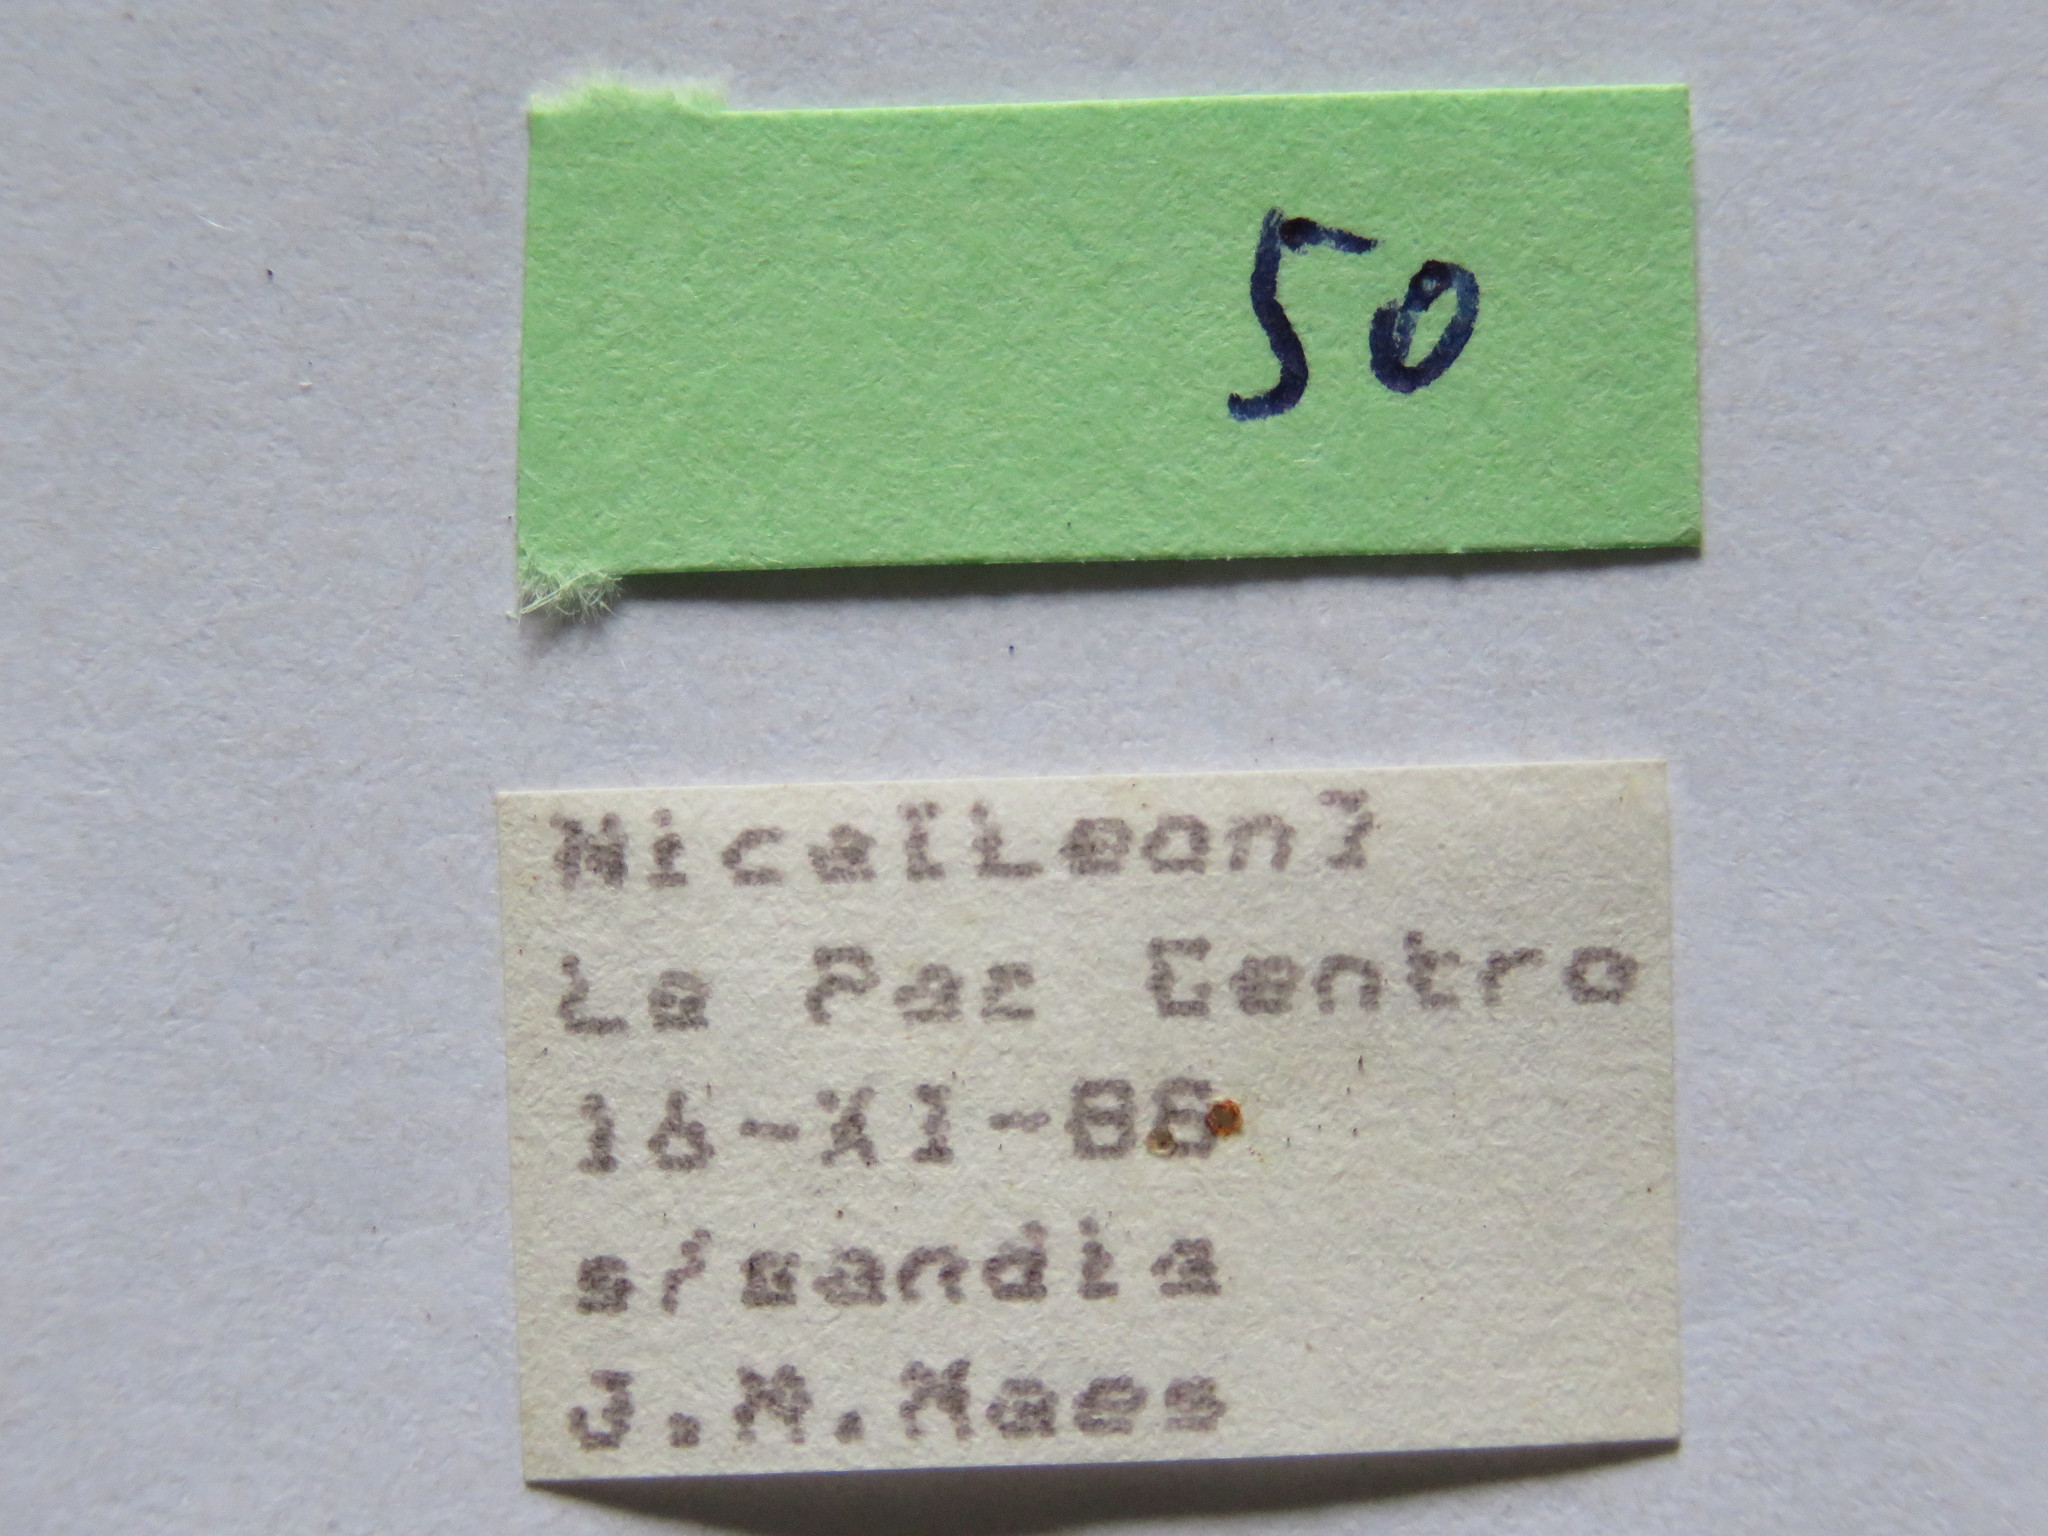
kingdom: Animalia
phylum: Arthropoda
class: Insecta
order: Hemiptera
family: Coreidae
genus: Phthiacnemia
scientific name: Phthiacnemia picta
